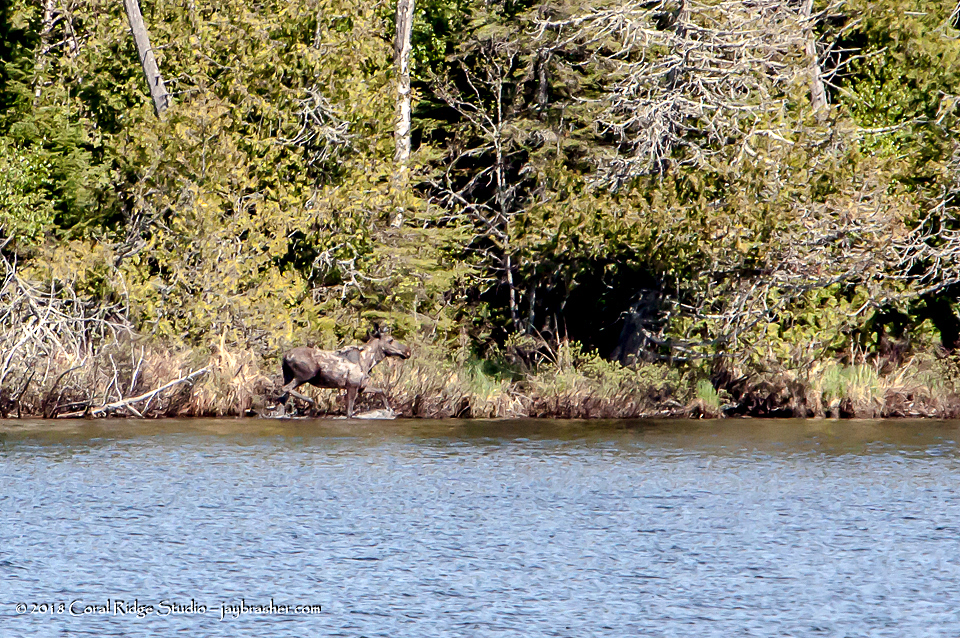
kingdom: Animalia
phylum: Chordata
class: Mammalia
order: Artiodactyla
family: Cervidae
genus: Alces
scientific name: Alces alces
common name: Moose
